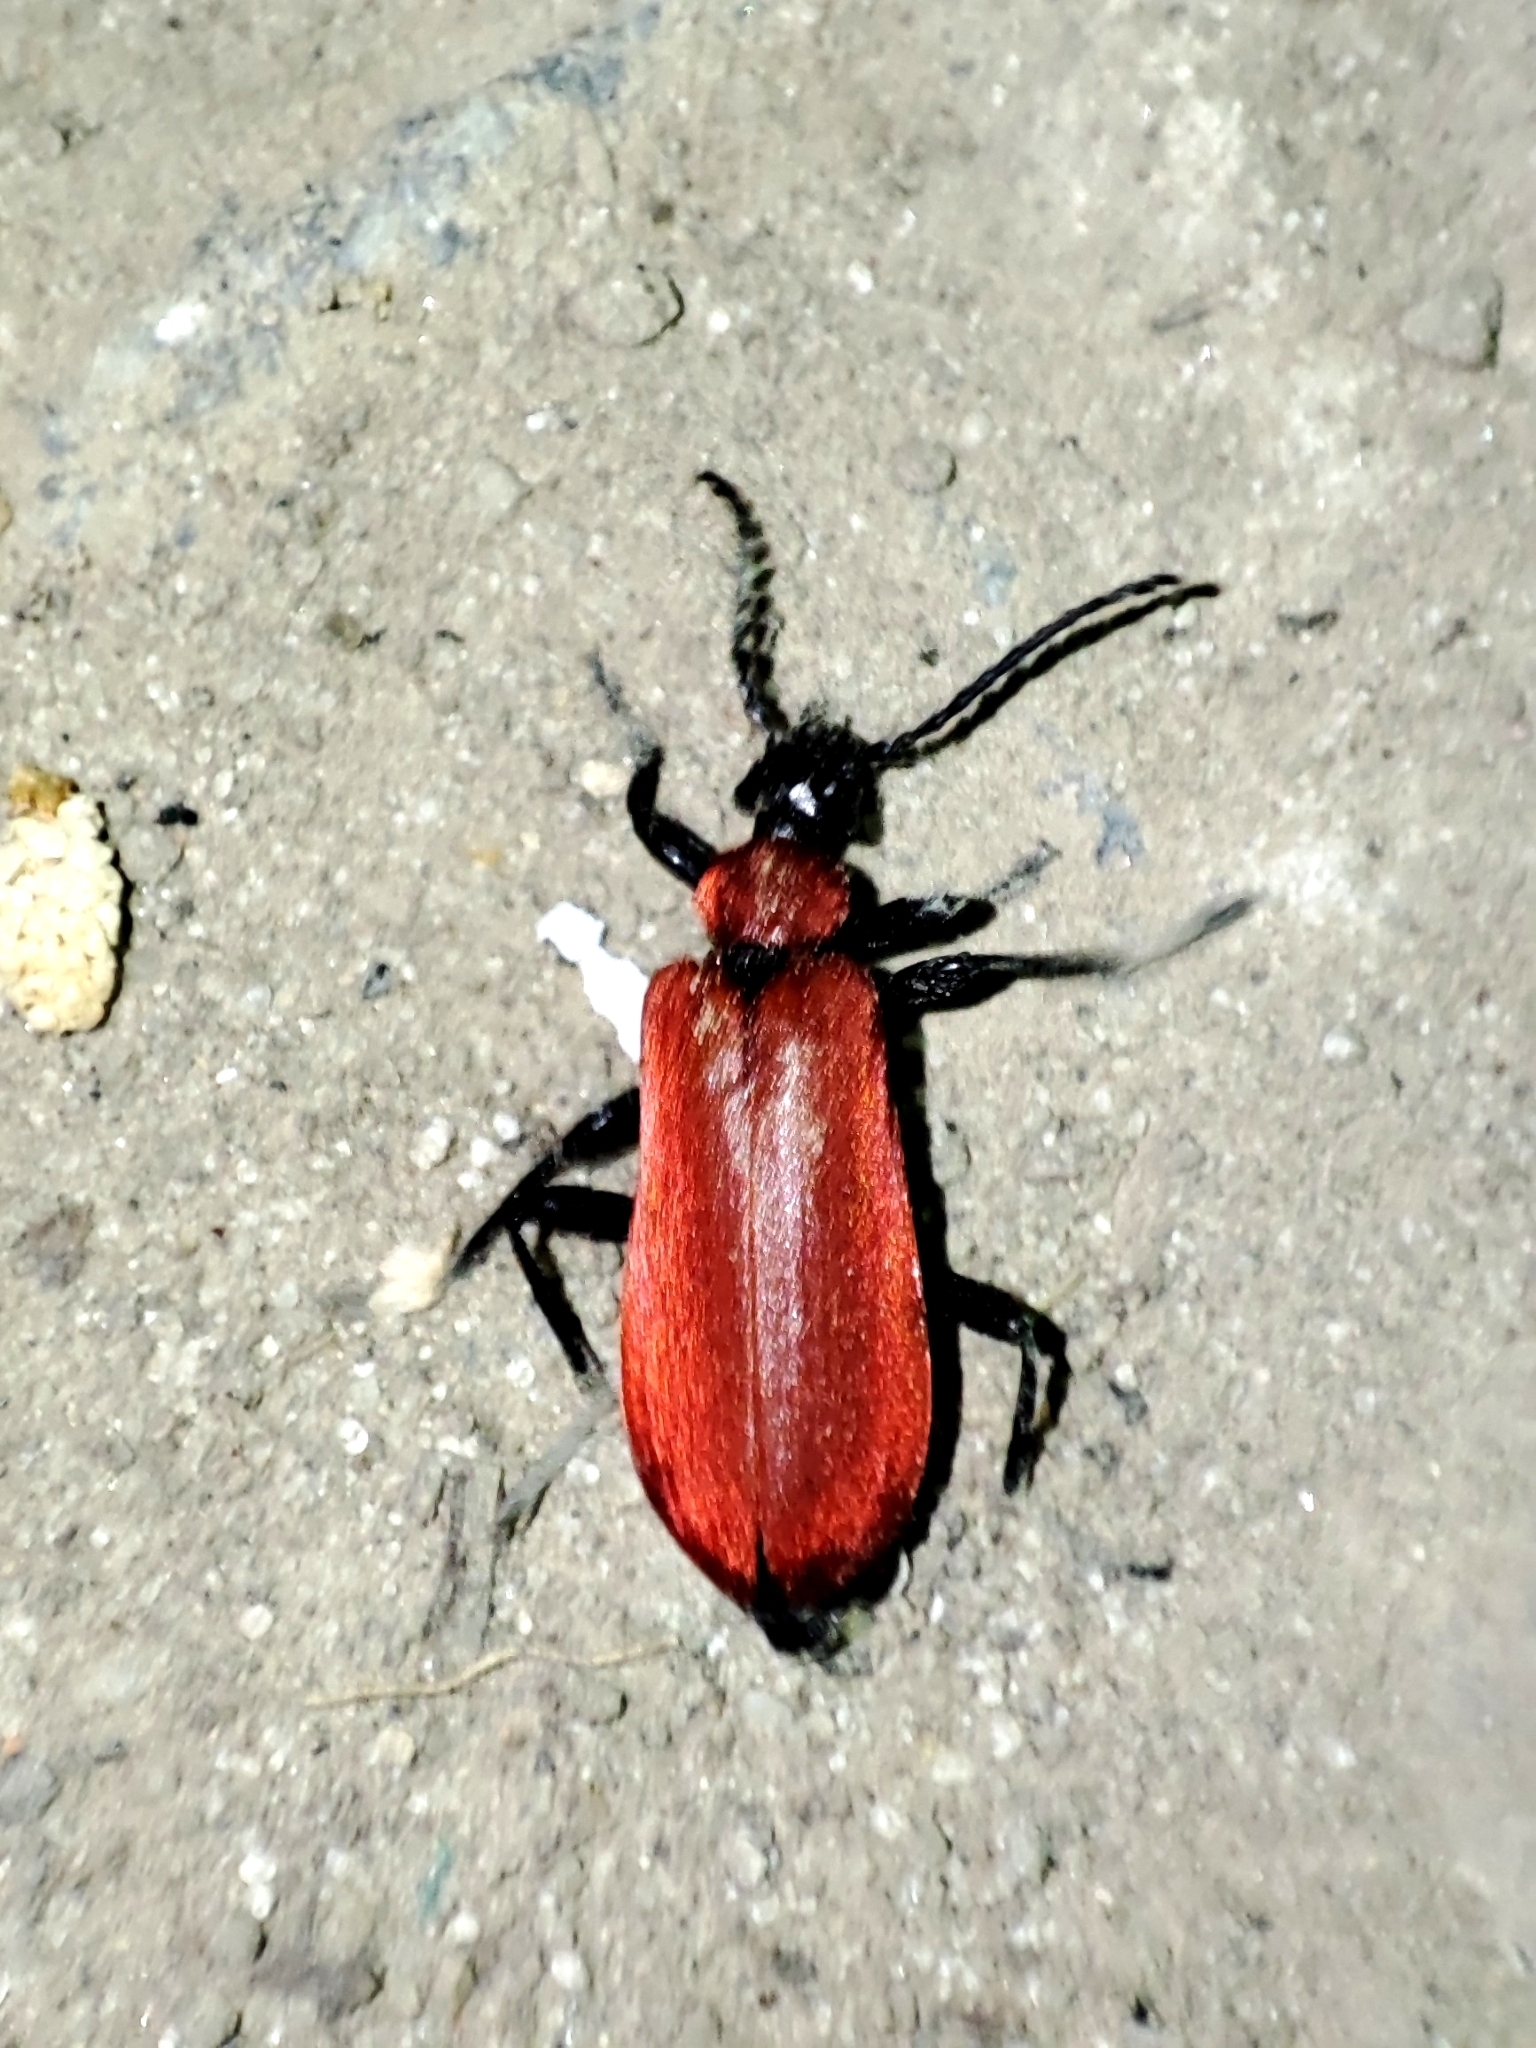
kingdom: Animalia
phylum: Arthropoda
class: Insecta
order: Coleoptera
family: Pyrochroidae
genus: Pyrochroa
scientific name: Pyrochroa coccinea
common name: Black-headed cardinal beetle
